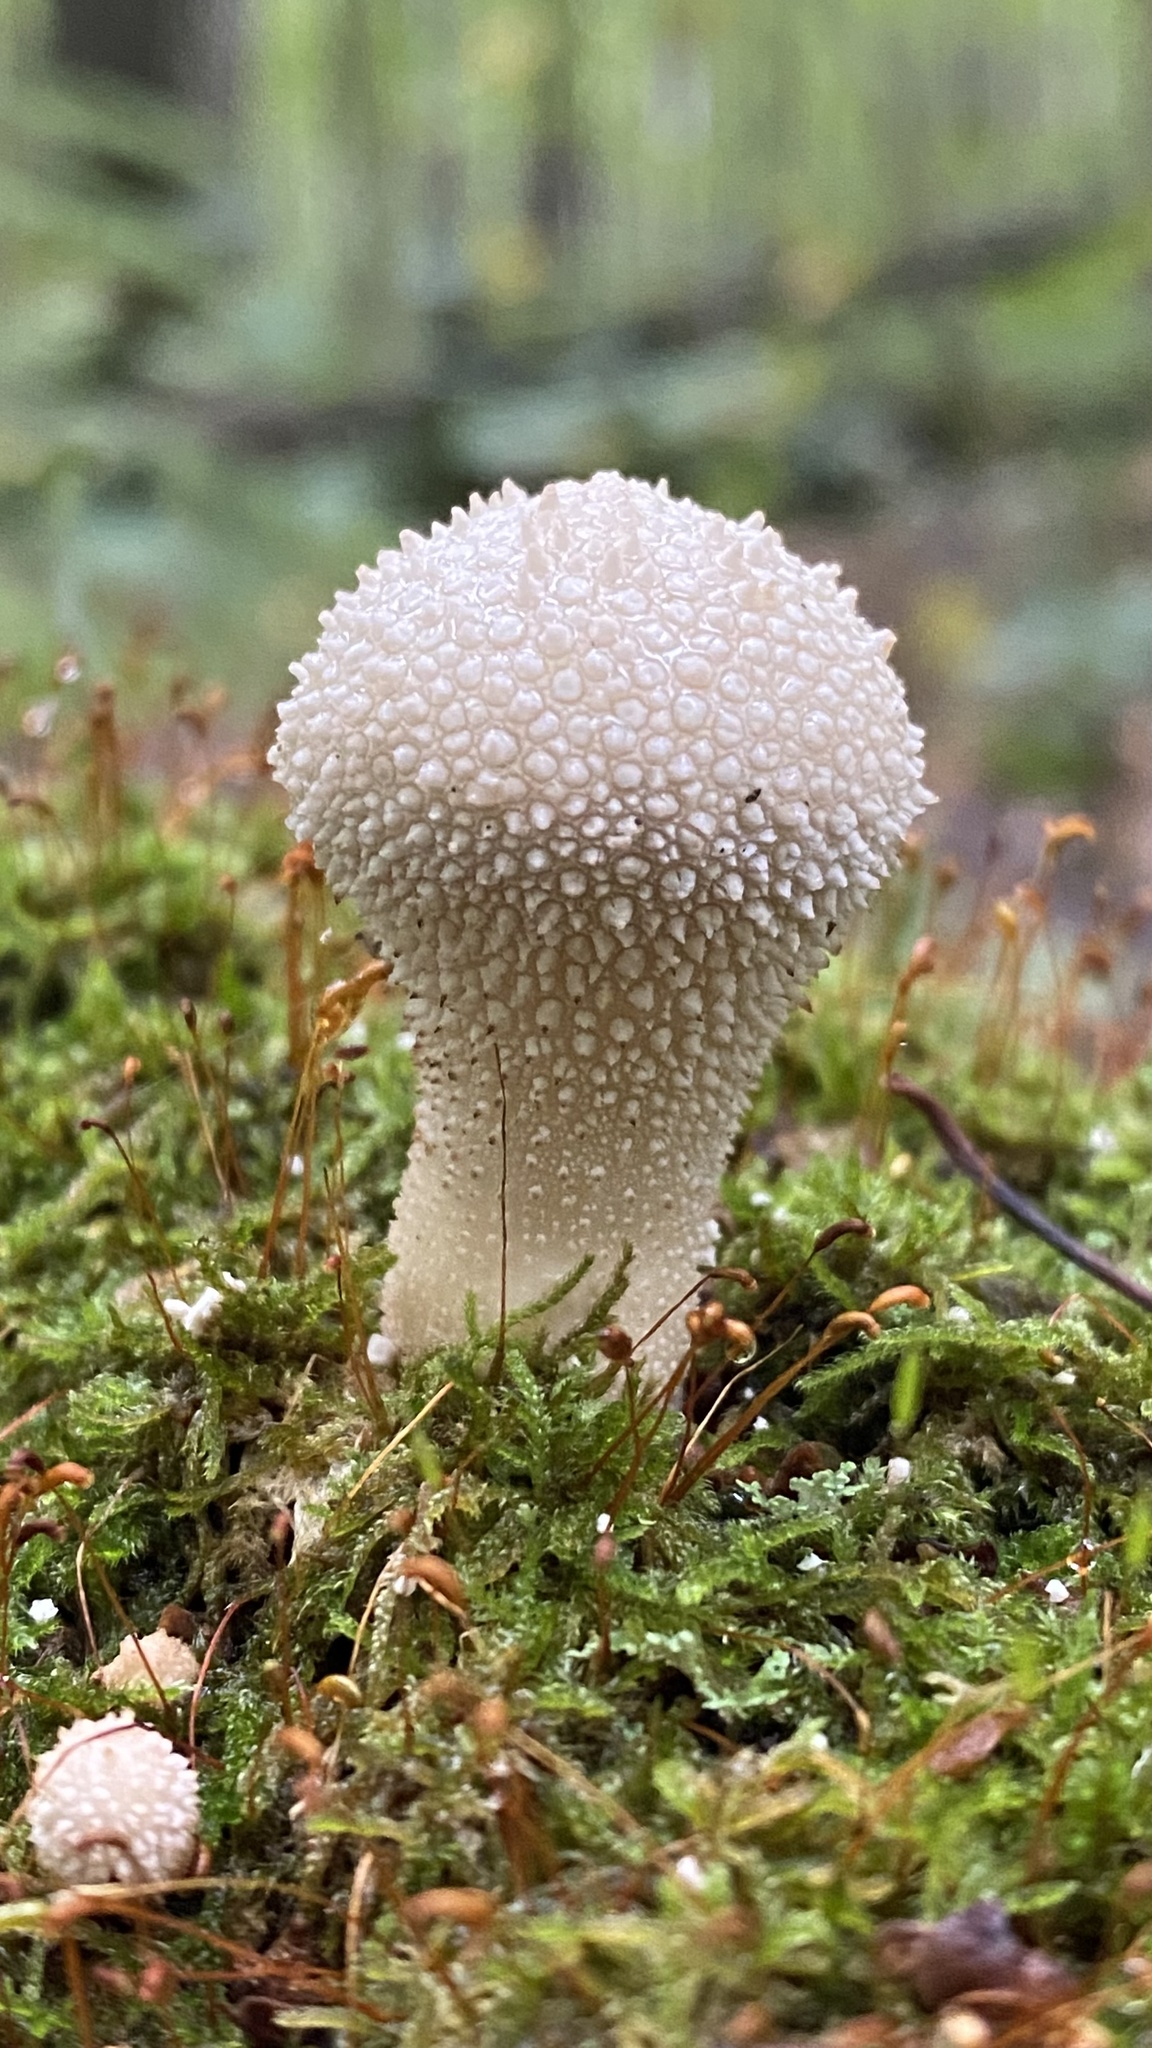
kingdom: Fungi
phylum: Basidiomycota
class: Agaricomycetes
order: Agaricales
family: Lycoperdaceae
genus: Lycoperdon
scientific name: Lycoperdon perlatum
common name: Common puffball
